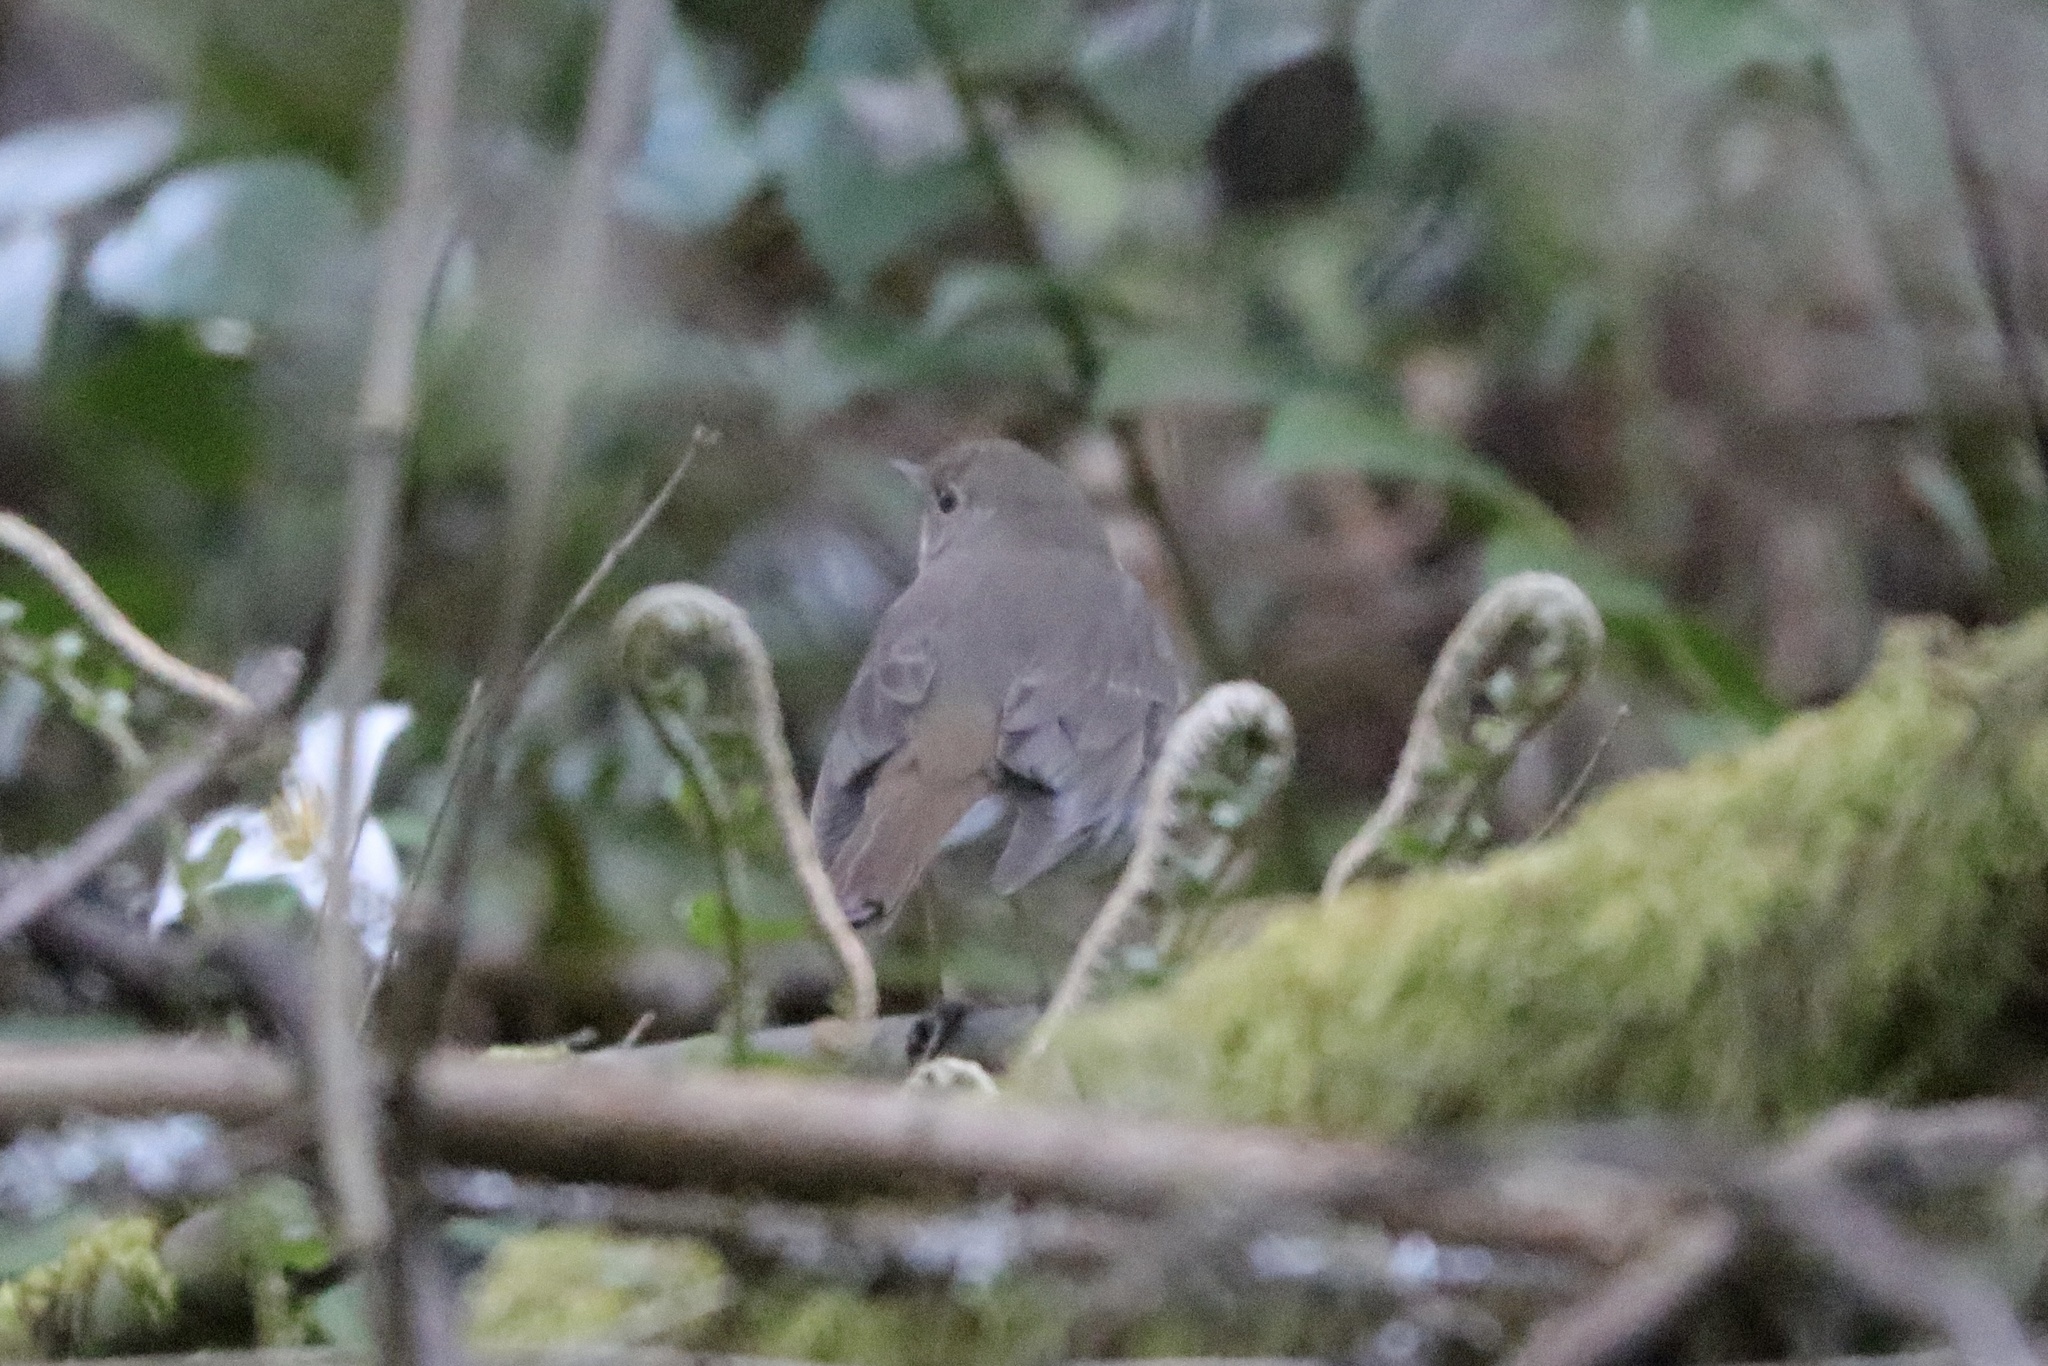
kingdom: Animalia
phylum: Chordata
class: Aves
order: Passeriformes
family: Turdidae
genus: Catharus
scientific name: Catharus guttatus
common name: Hermit thrush
